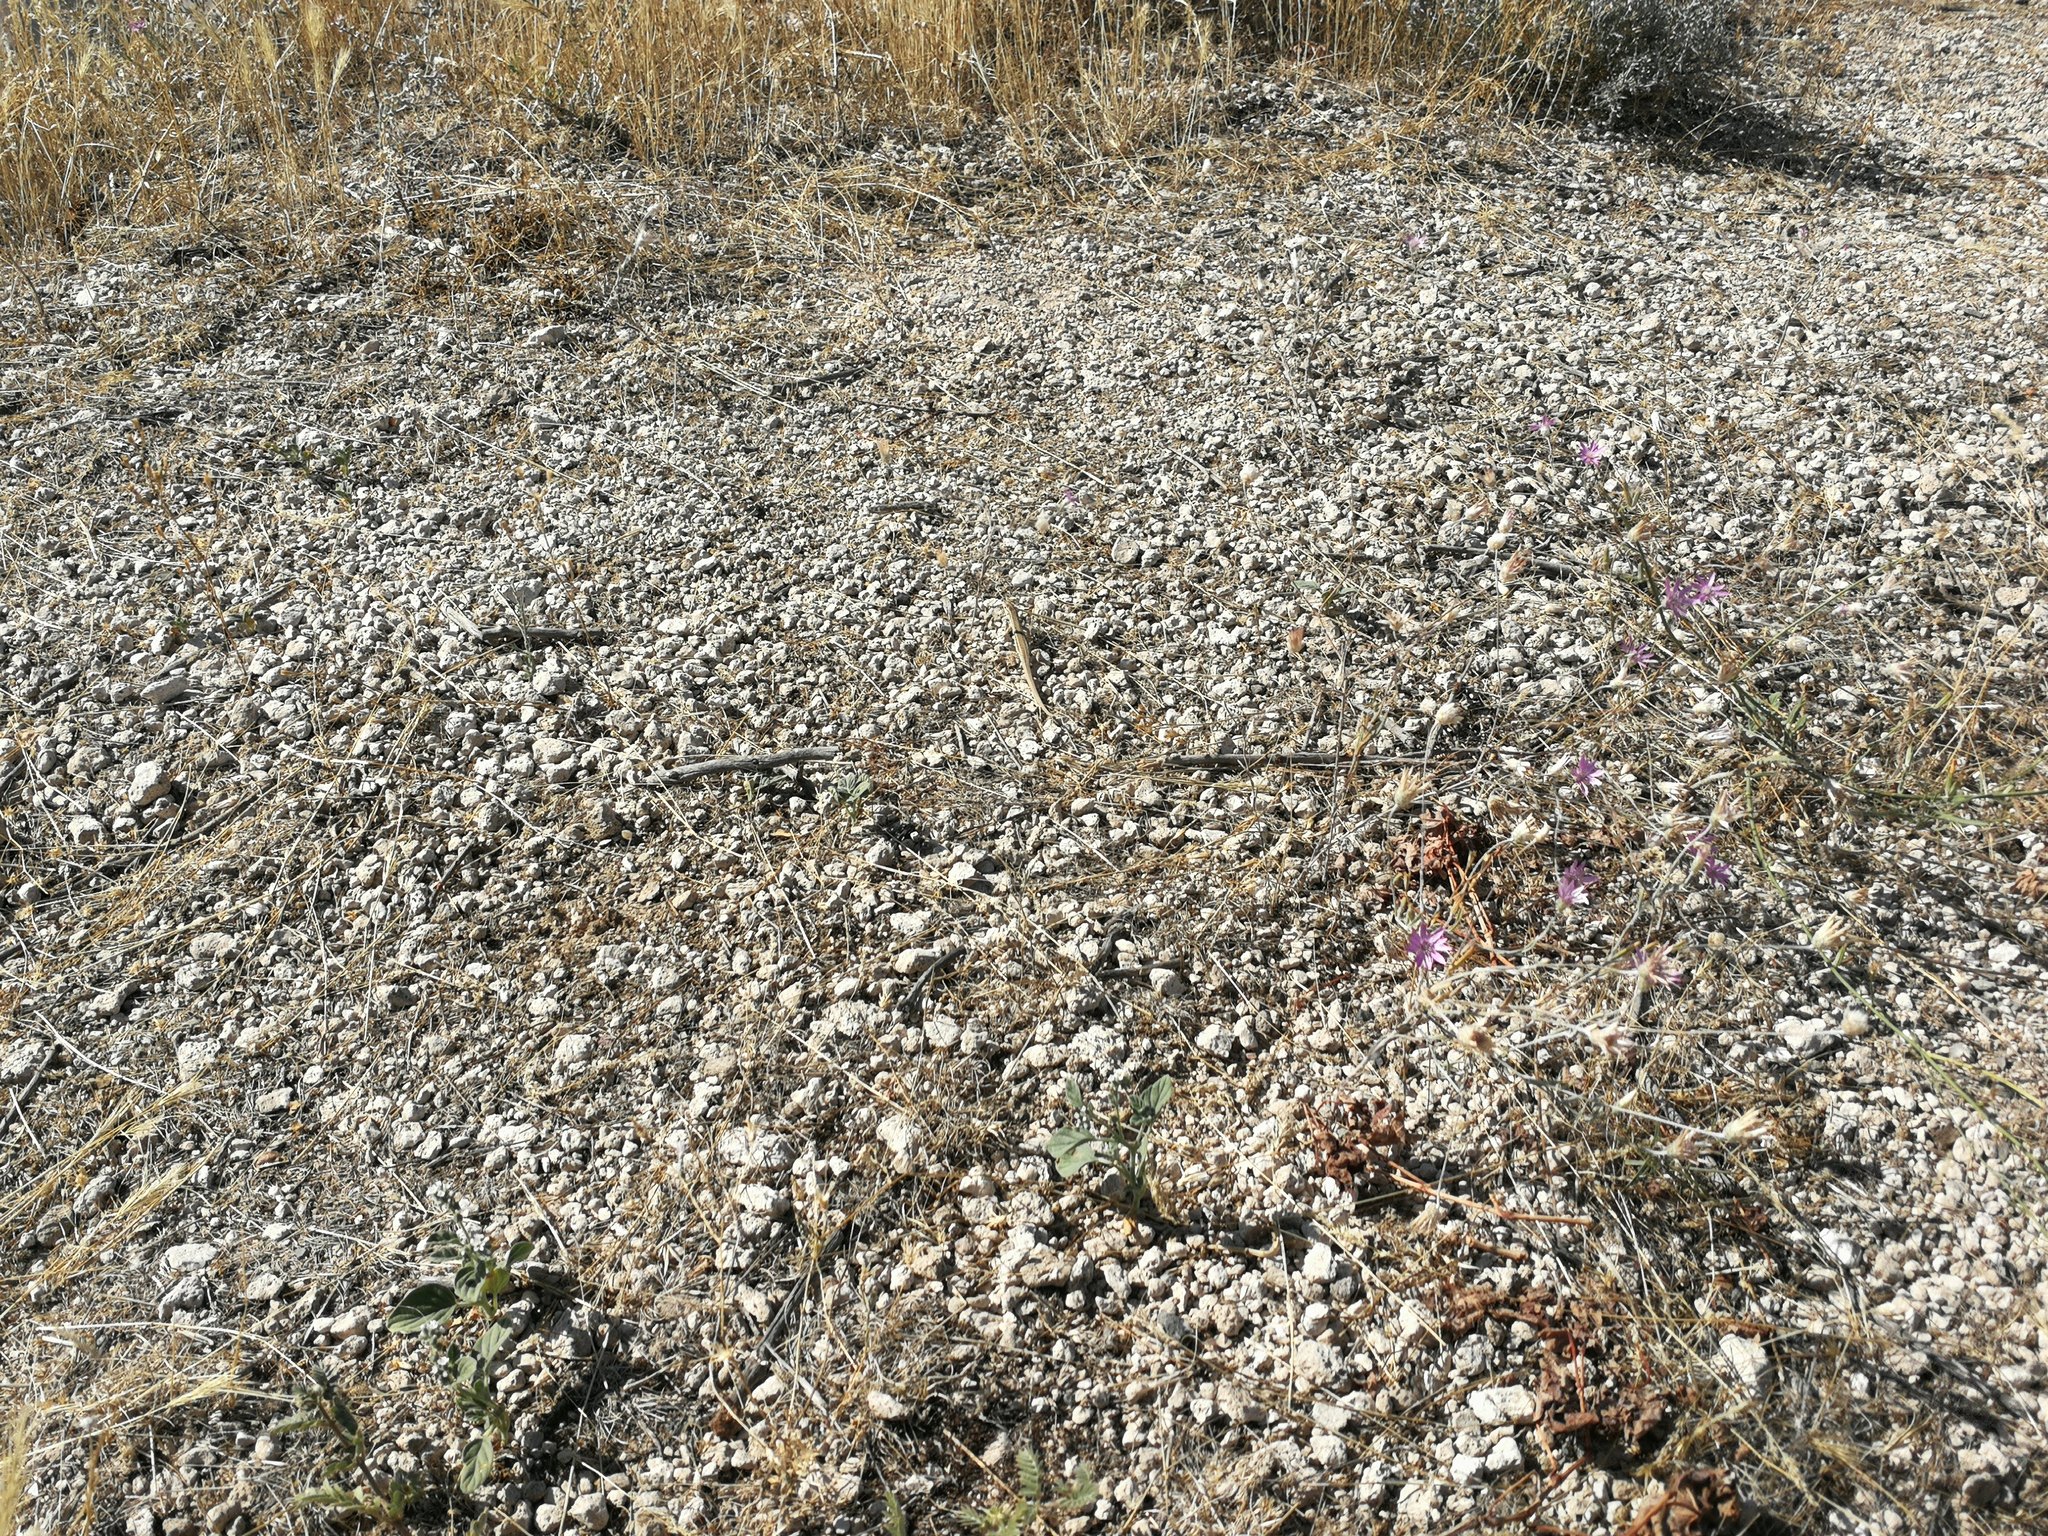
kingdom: Animalia
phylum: Chordata
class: Squamata
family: Lacertidae
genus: Ophisops
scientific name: Ophisops elegans
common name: Snake-eyed lizard
